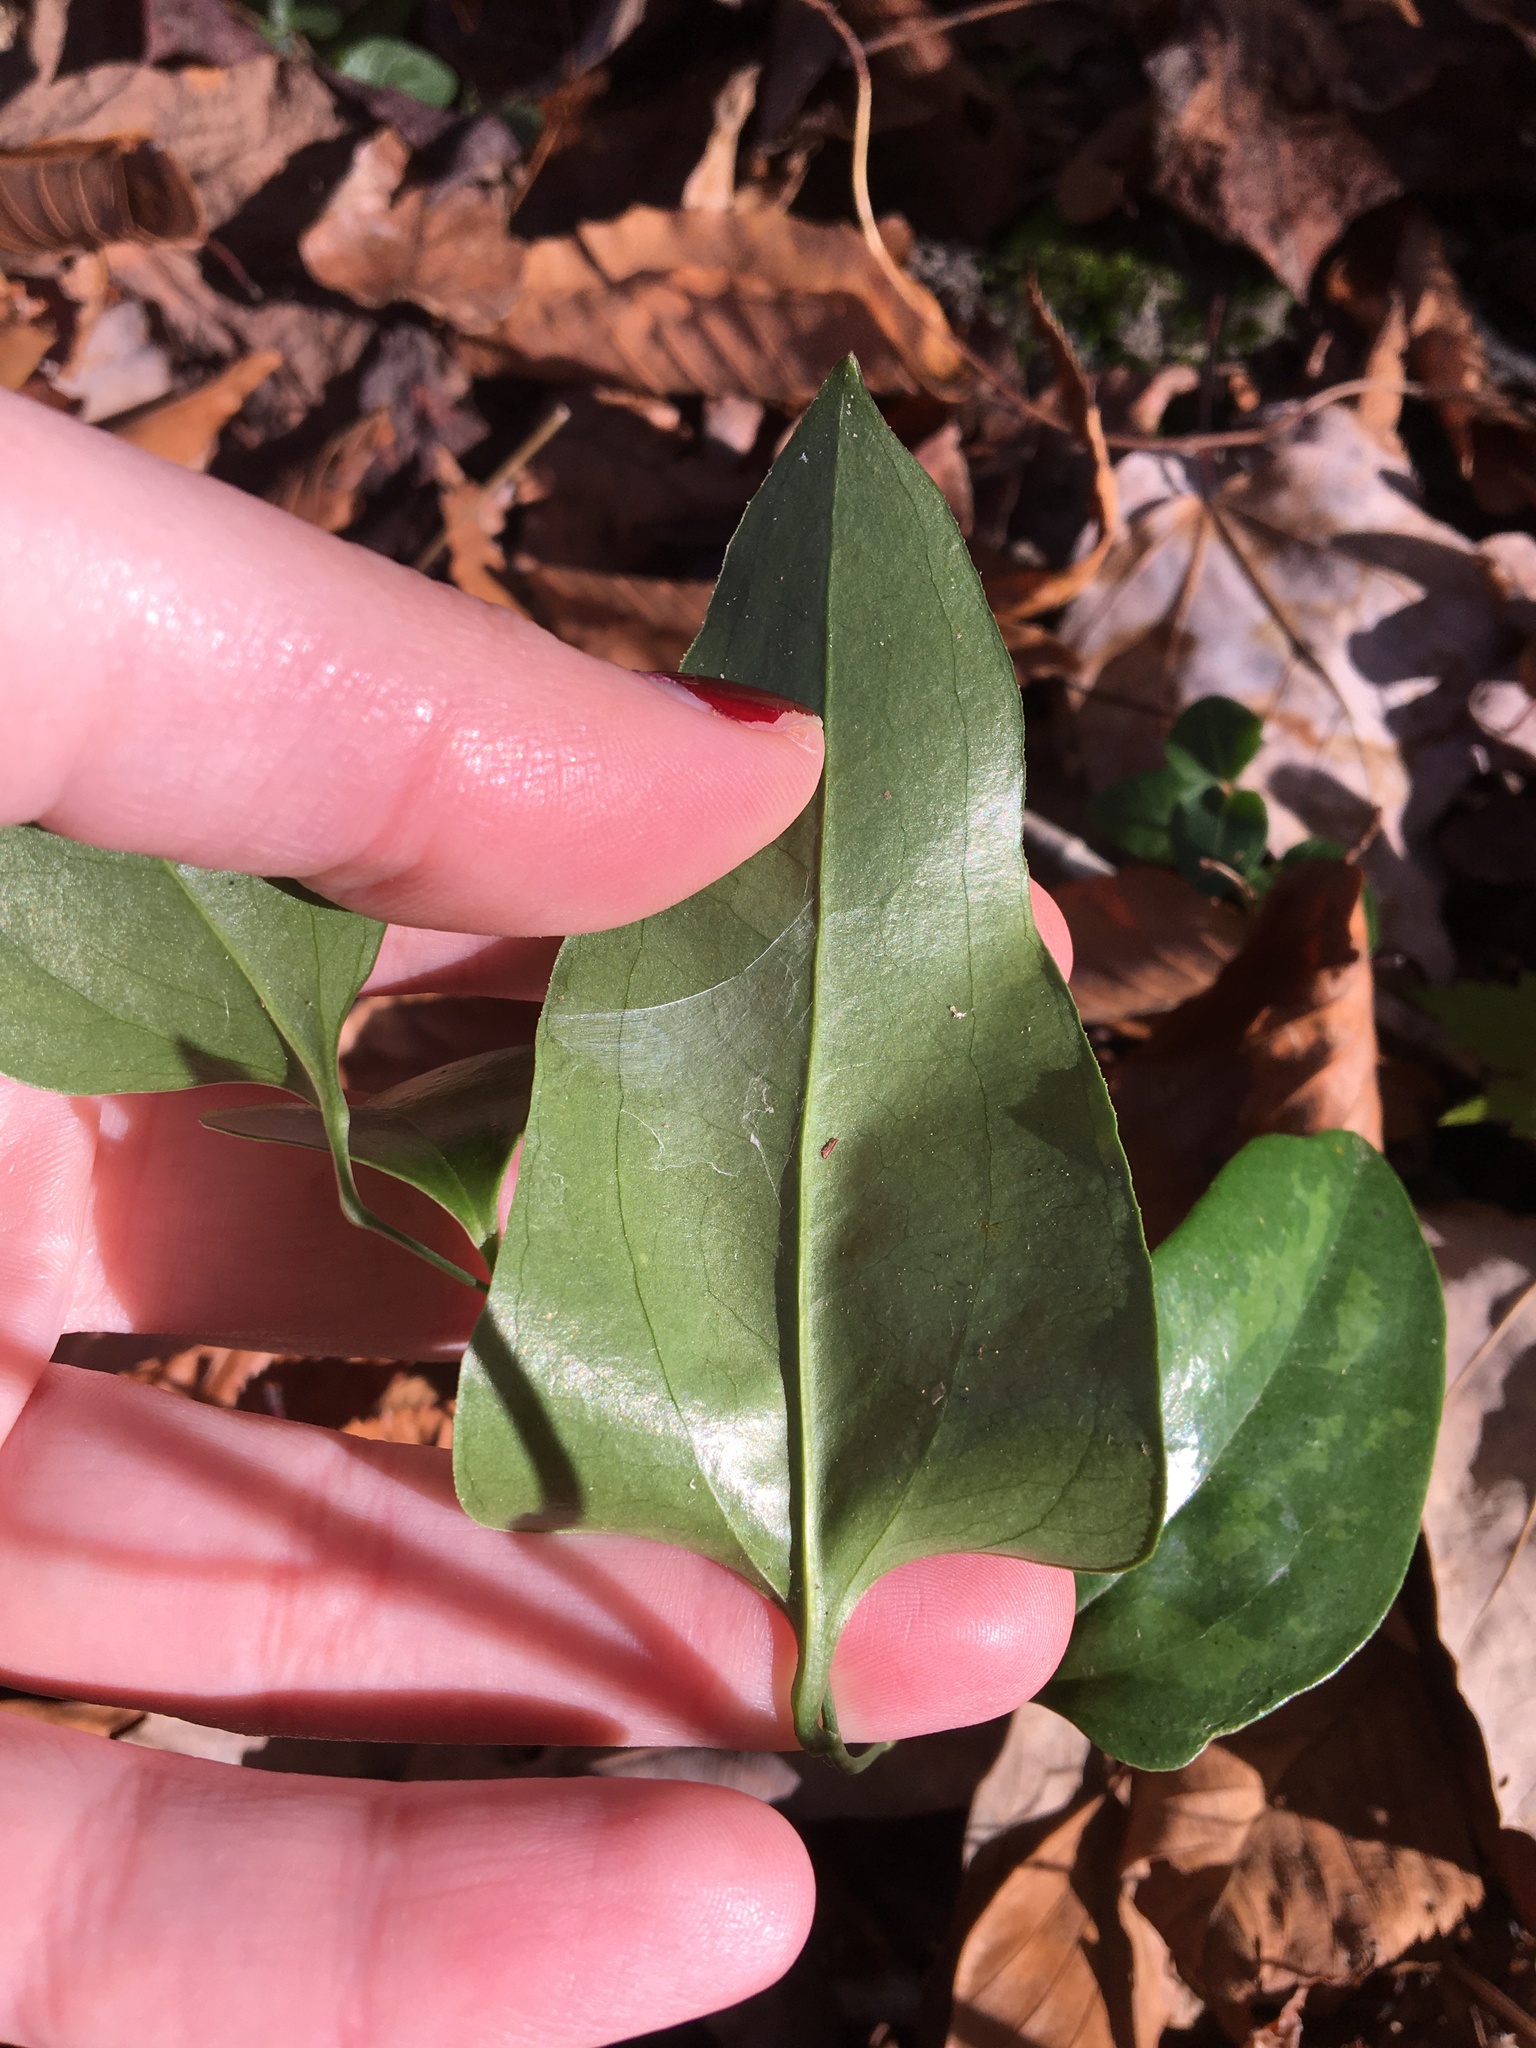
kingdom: Plantae
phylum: Tracheophyta
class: Liliopsida
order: Liliales
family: Smilacaceae
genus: Smilax
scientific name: Smilax glauca
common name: Cat greenbrier
